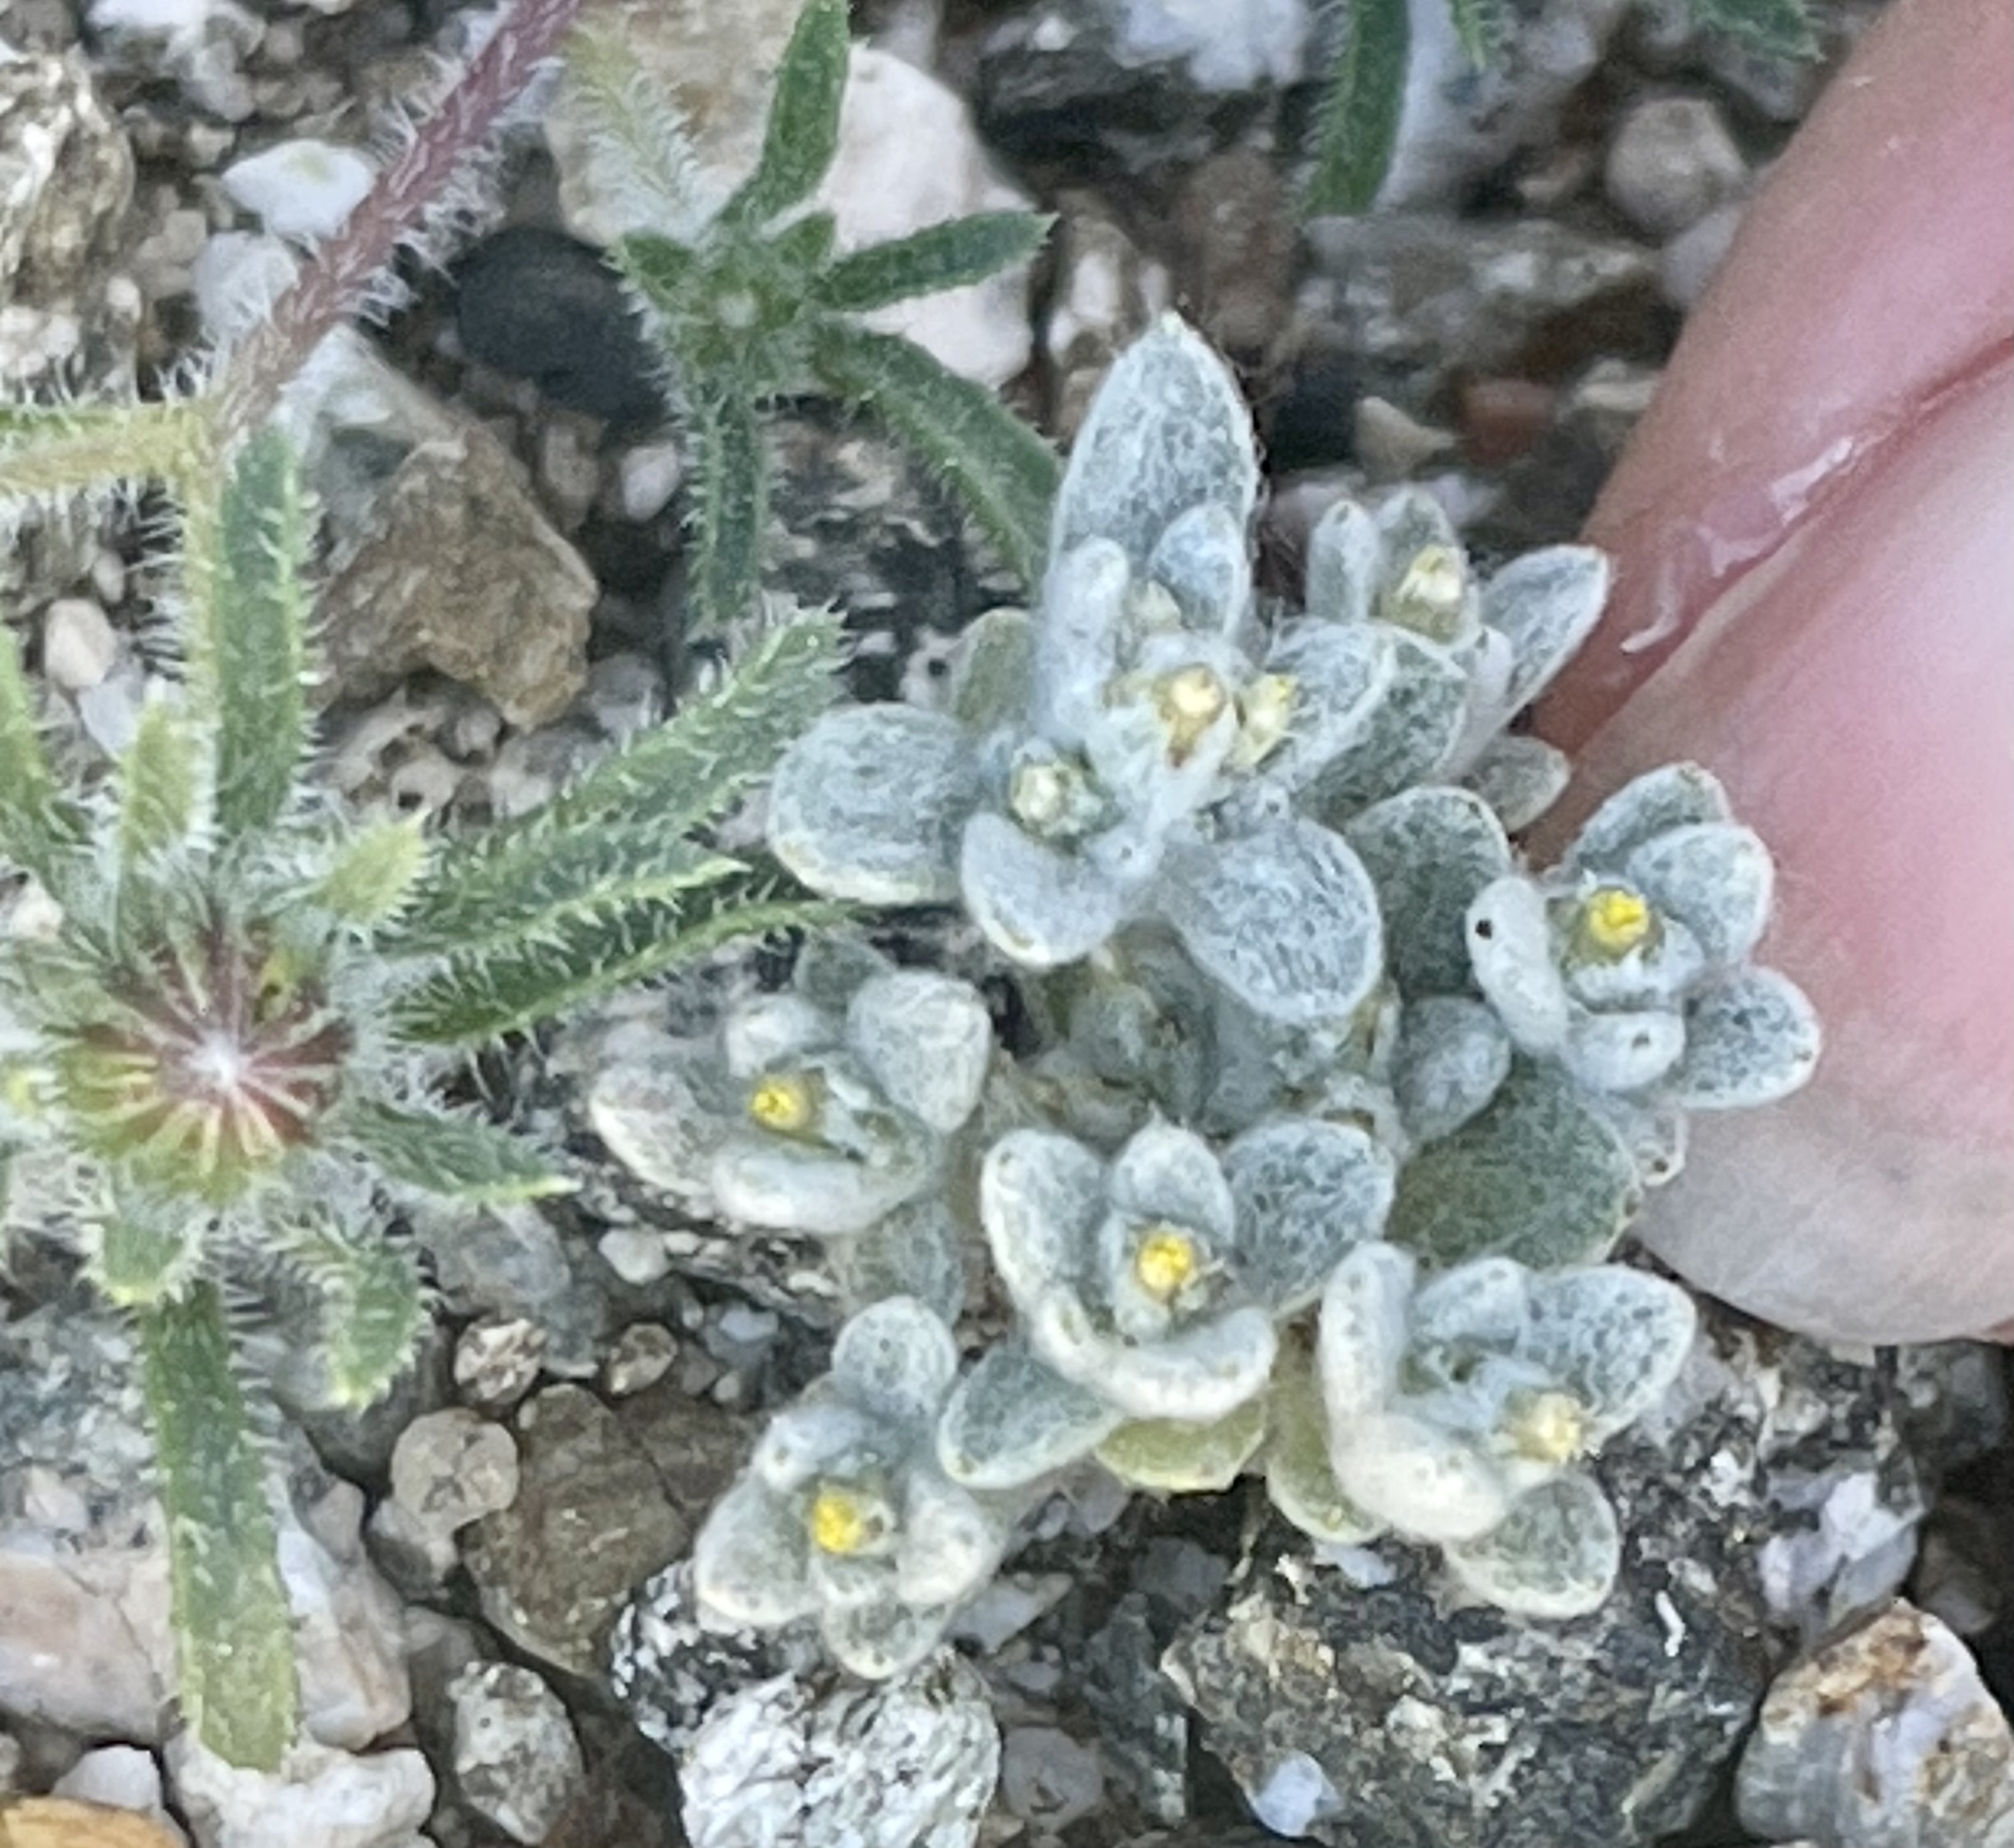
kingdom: Plantae
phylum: Tracheophyta
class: Magnoliopsida
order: Asterales
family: Asteraceae
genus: Logfia
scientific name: Logfia depressa
